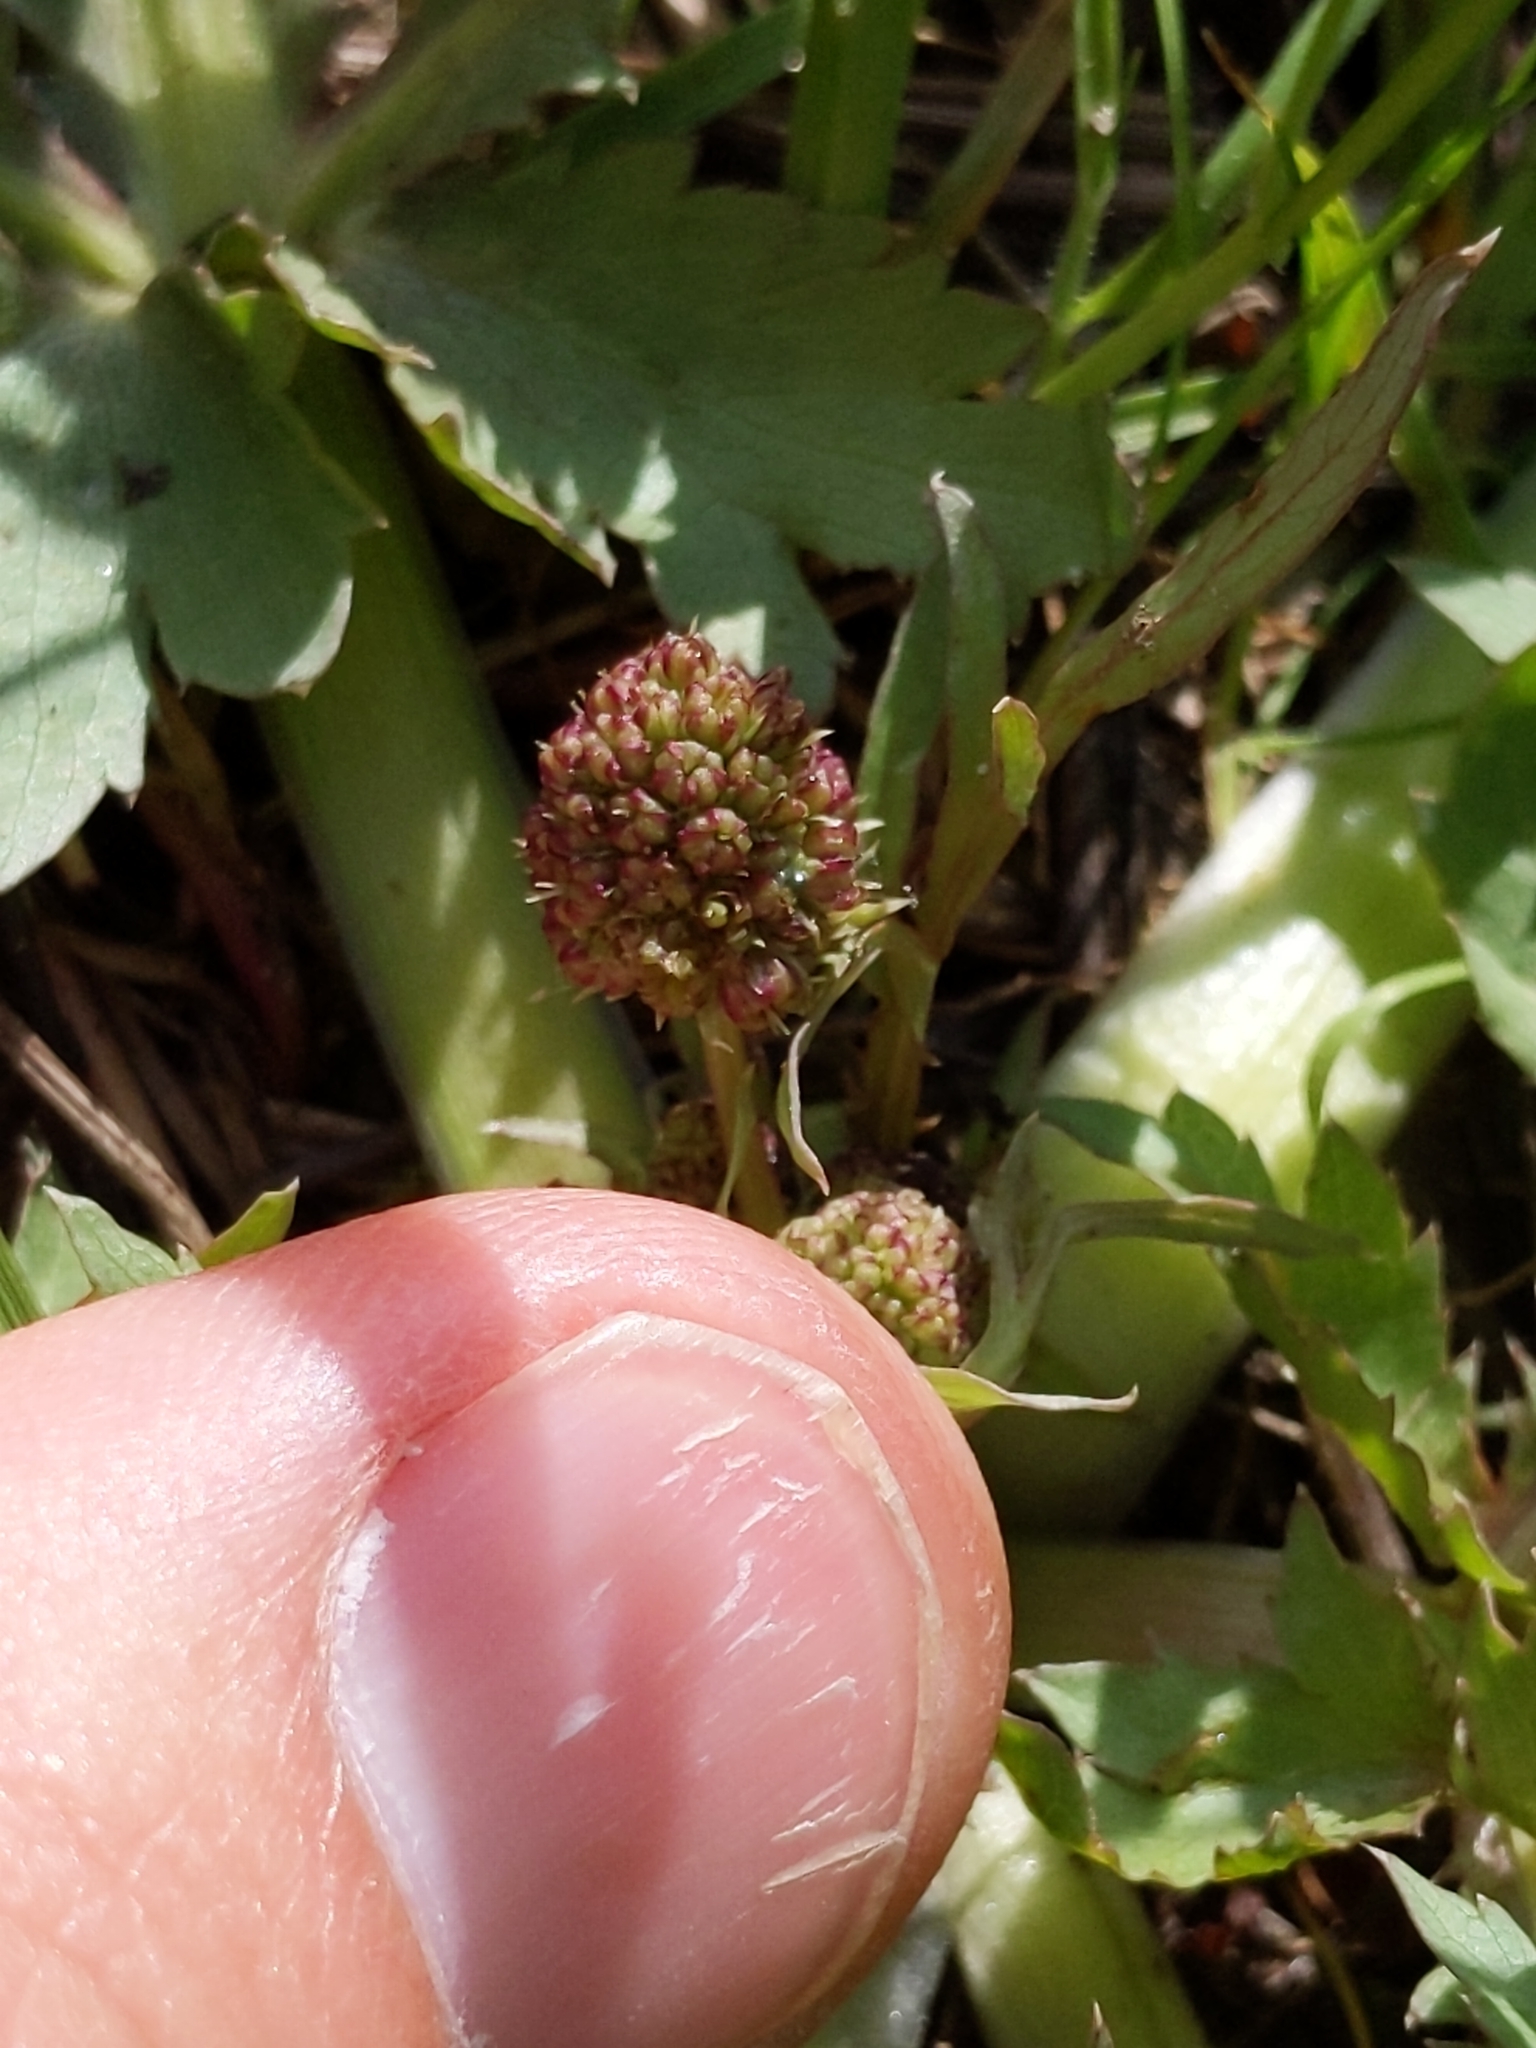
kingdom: Plantae
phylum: Tracheophyta
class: Magnoliopsida
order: Apiales
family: Apiaceae
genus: Sanicula
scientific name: Sanicula bipinnatifida
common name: Shoe-buttons
